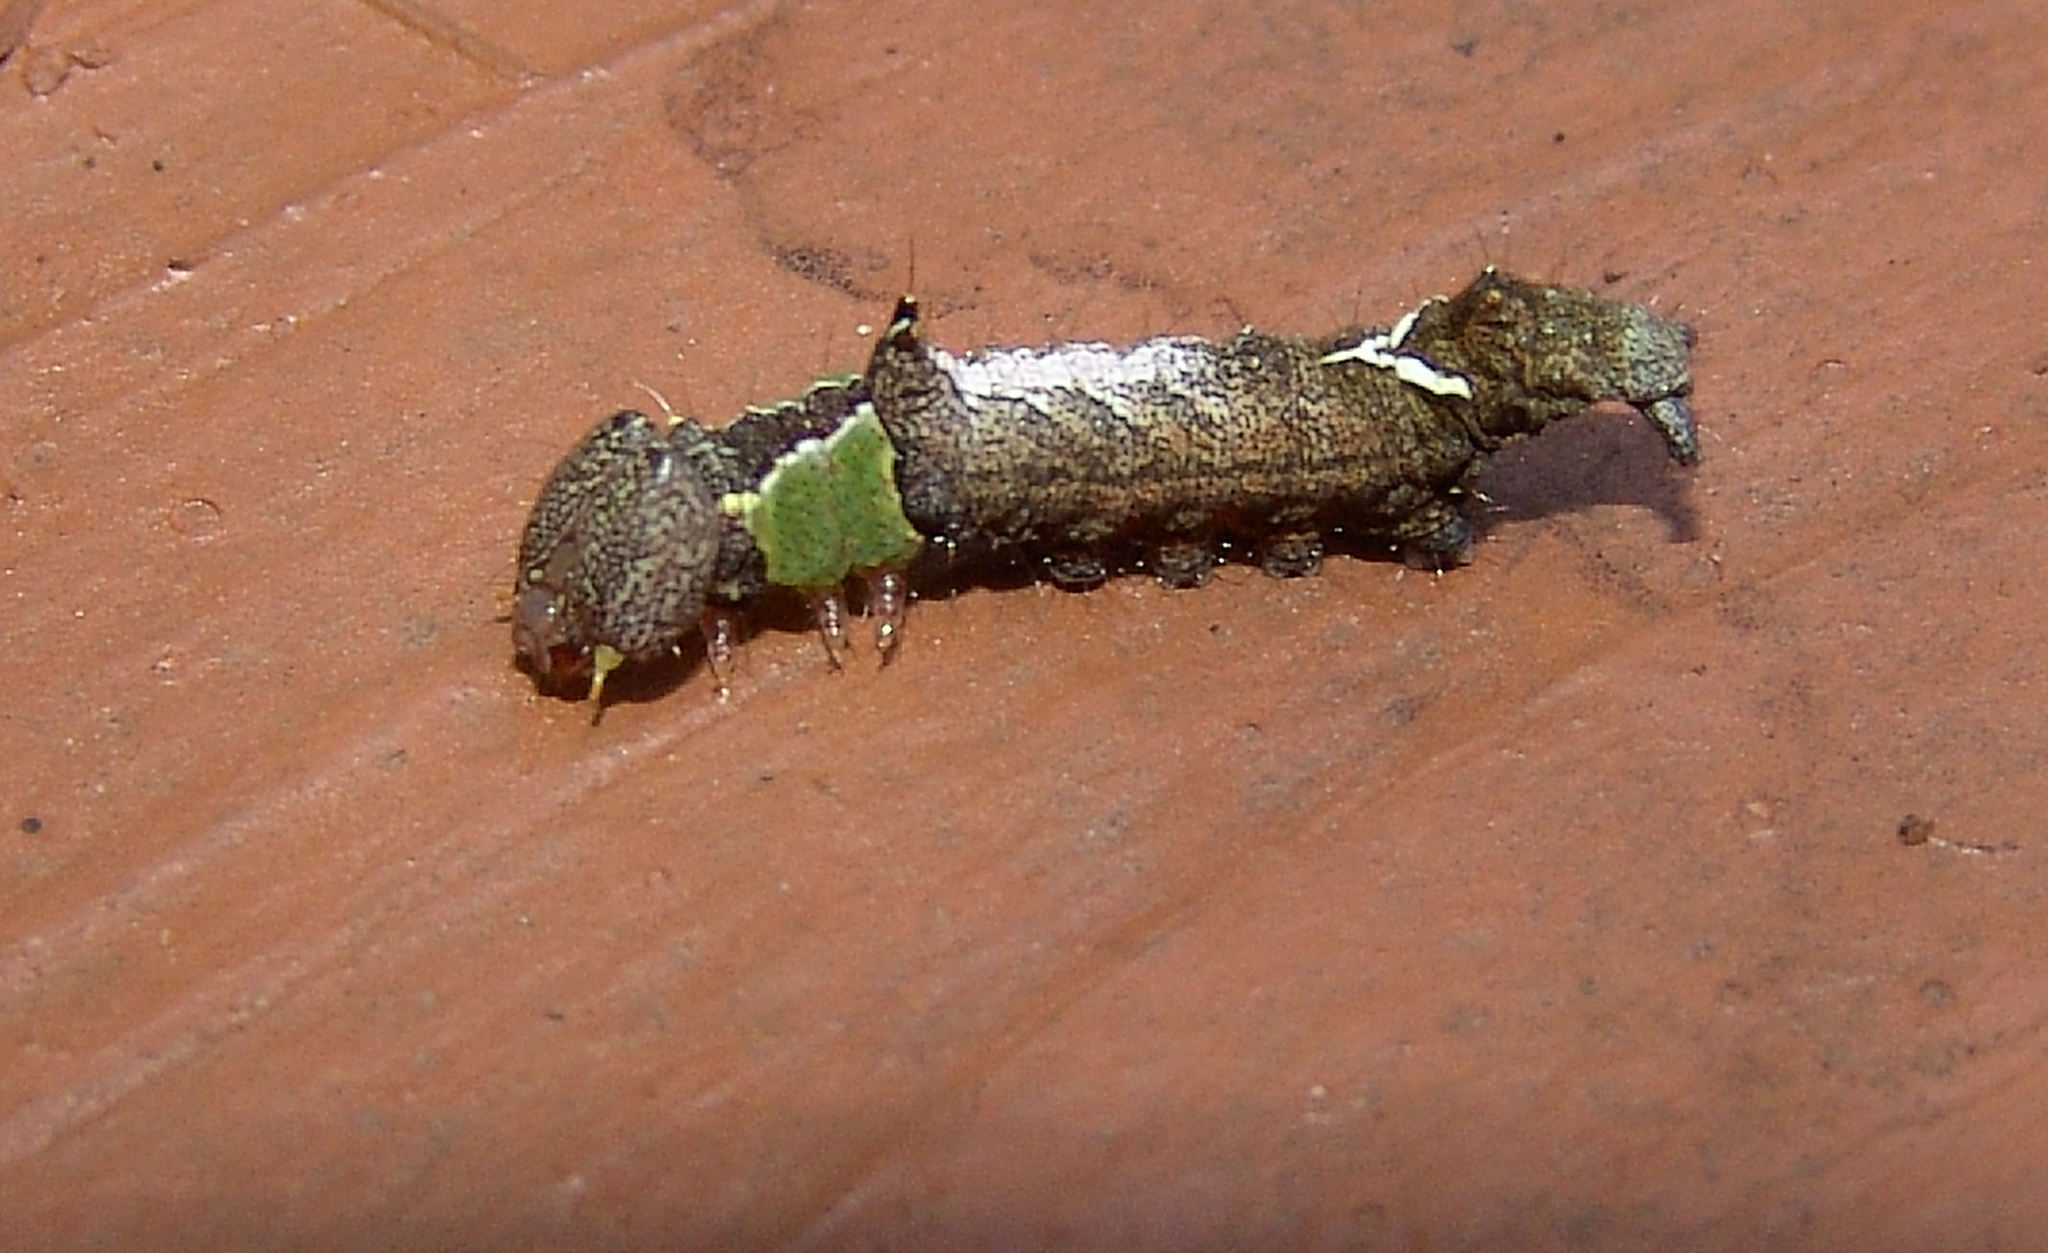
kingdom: Animalia
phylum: Arthropoda
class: Insecta
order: Lepidoptera
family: Notodontidae
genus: Schizura
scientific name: Schizura
